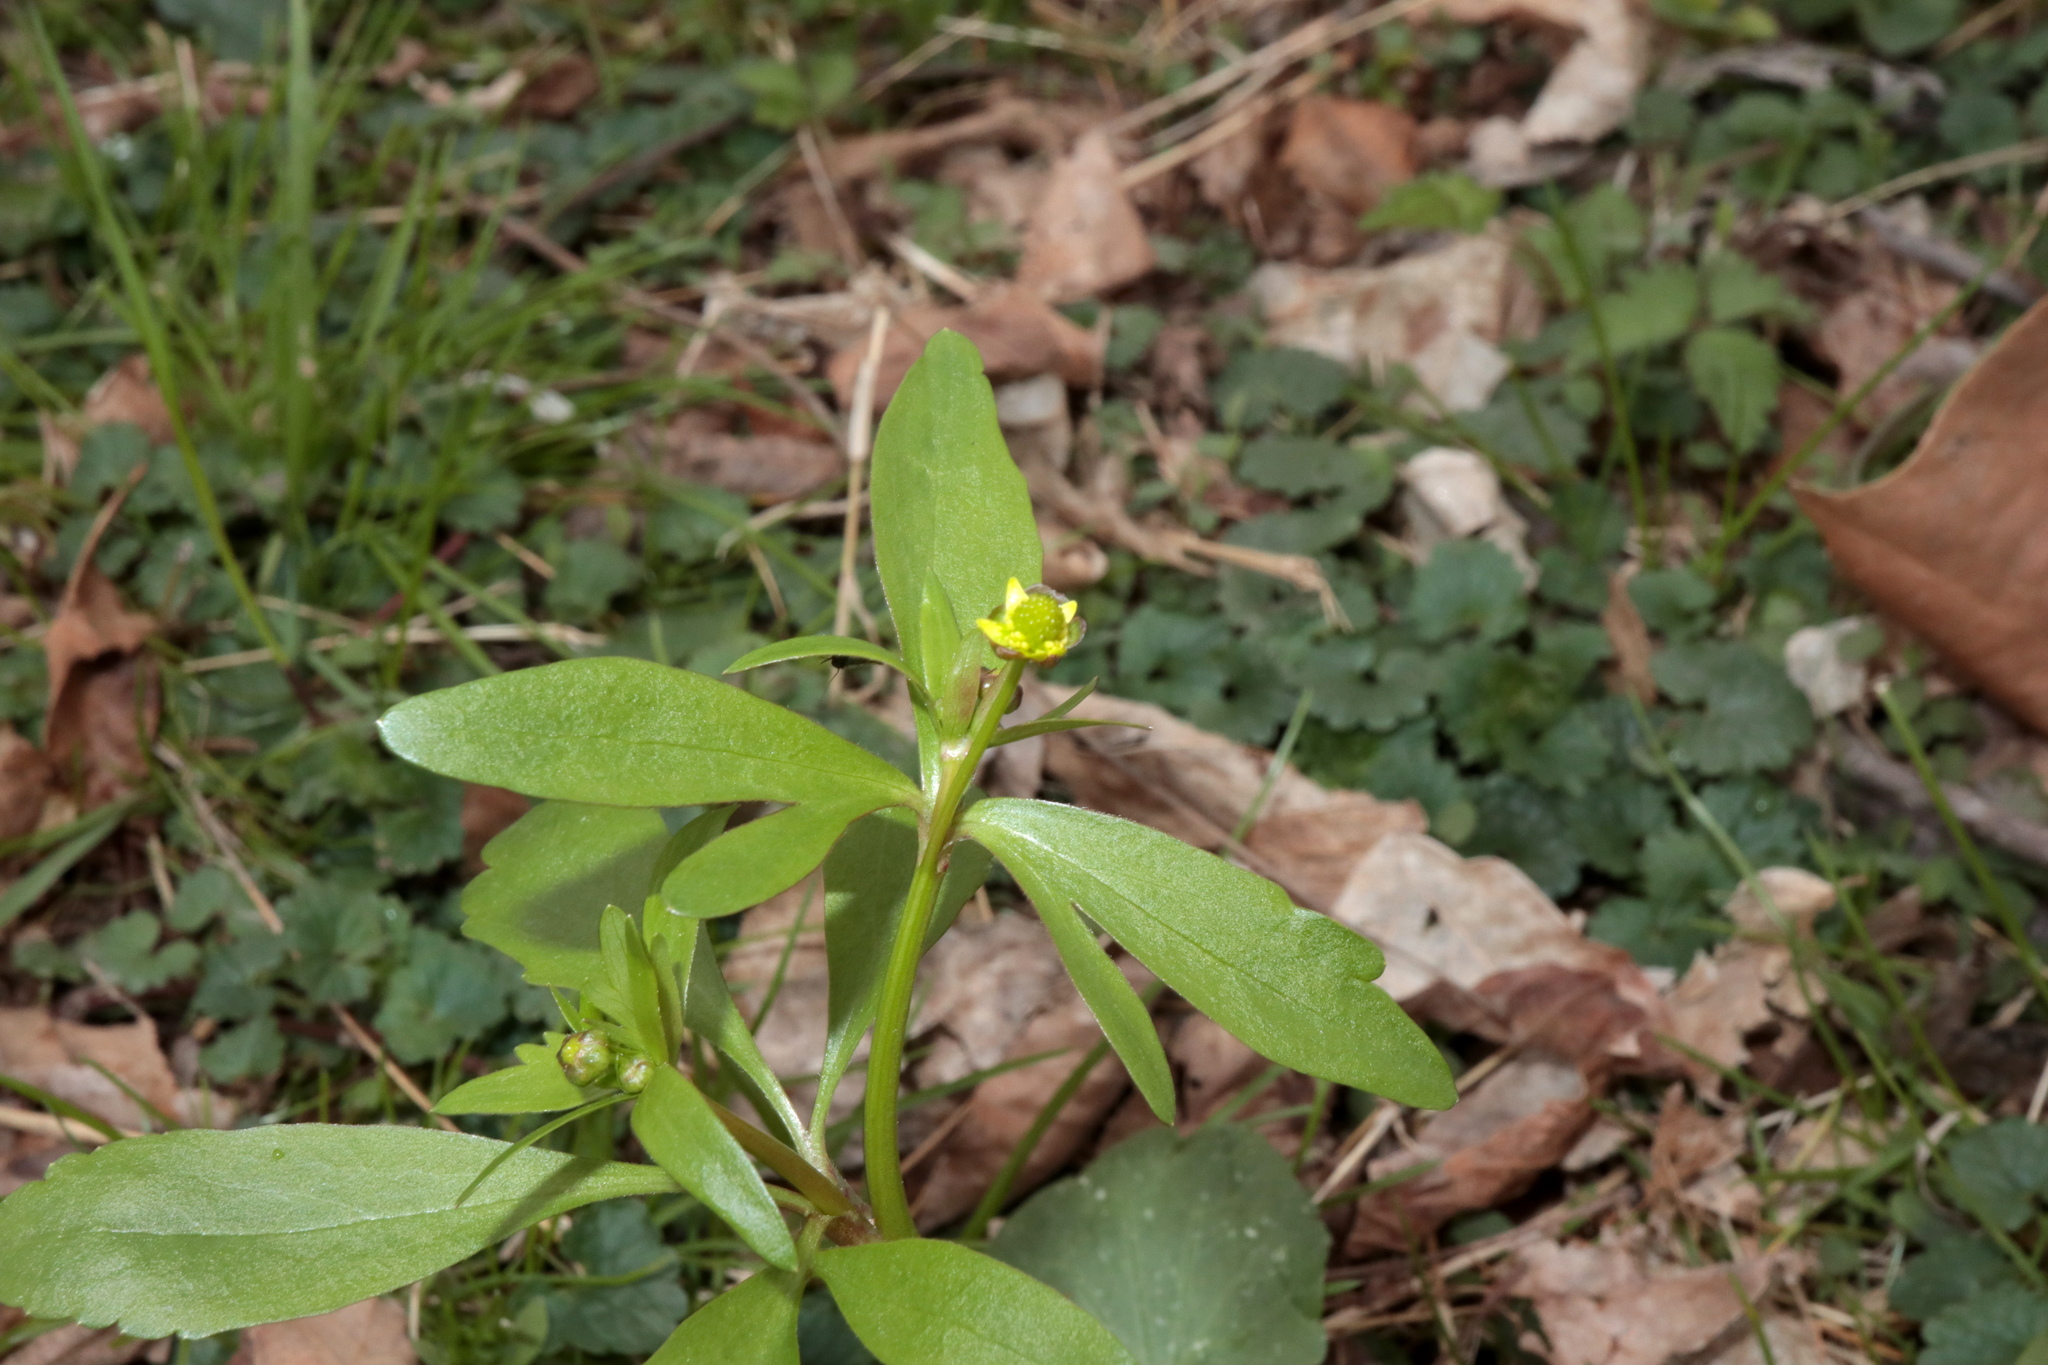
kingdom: Plantae
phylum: Tracheophyta
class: Magnoliopsida
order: Ranunculales
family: Ranunculaceae
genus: Ranunculus
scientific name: Ranunculus abortivus
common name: Early wood buttercup
